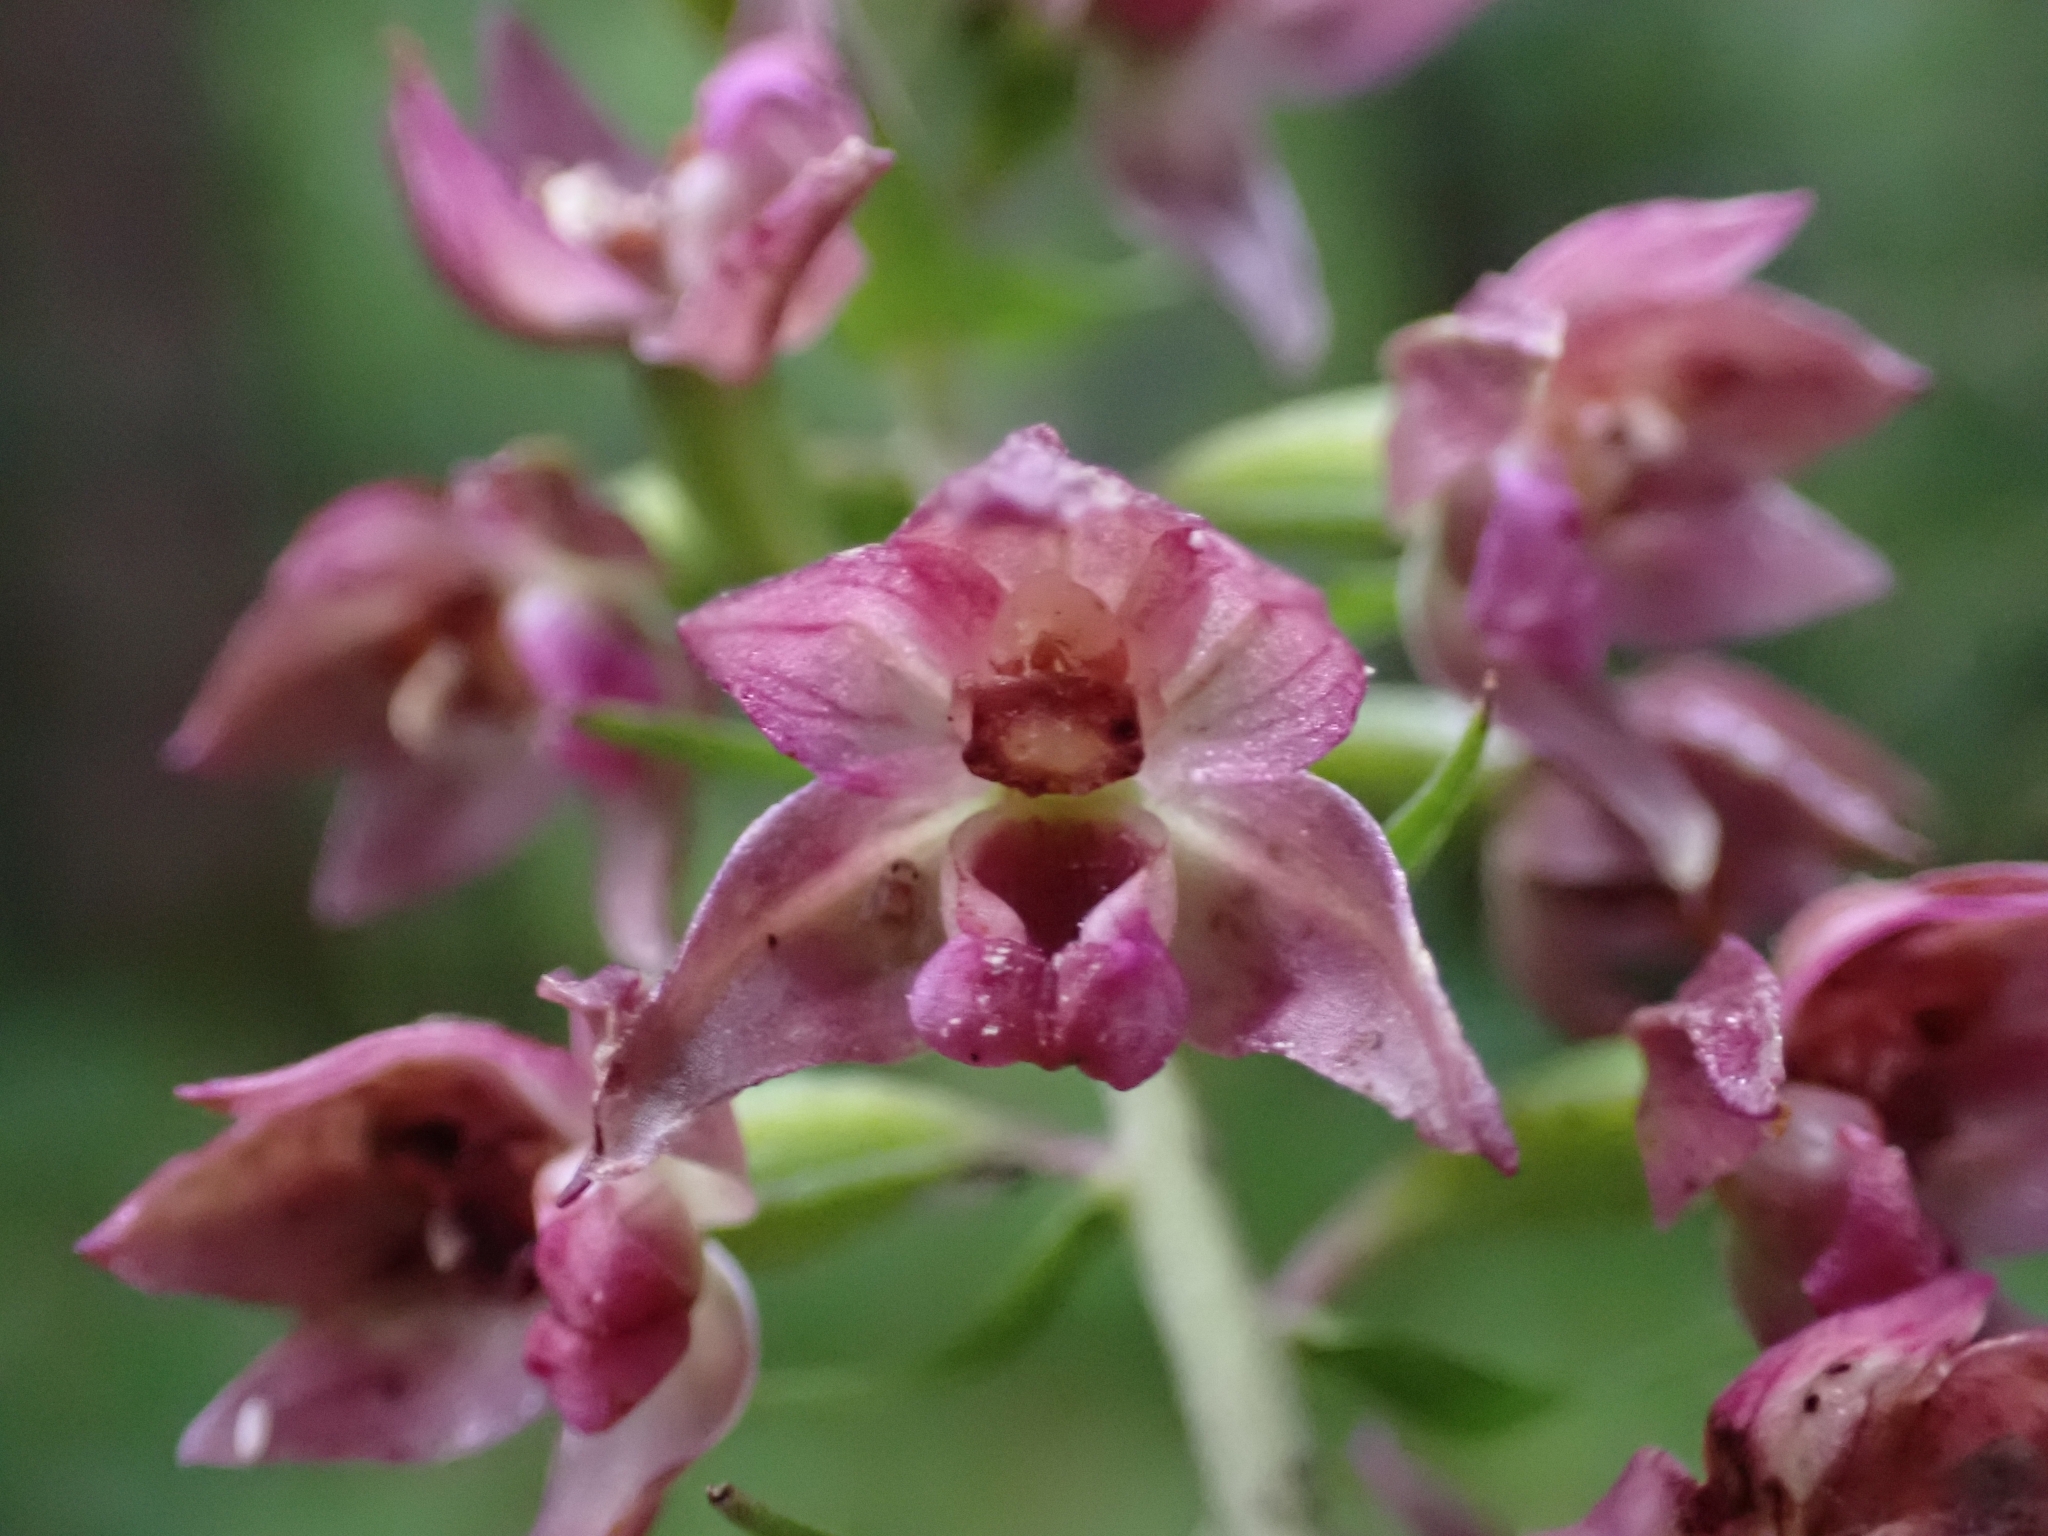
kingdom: Plantae
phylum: Tracheophyta
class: Liliopsida
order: Asparagales
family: Orchidaceae
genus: Epipactis
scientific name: Epipactis helleborine
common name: Broad-leaved helleborine
